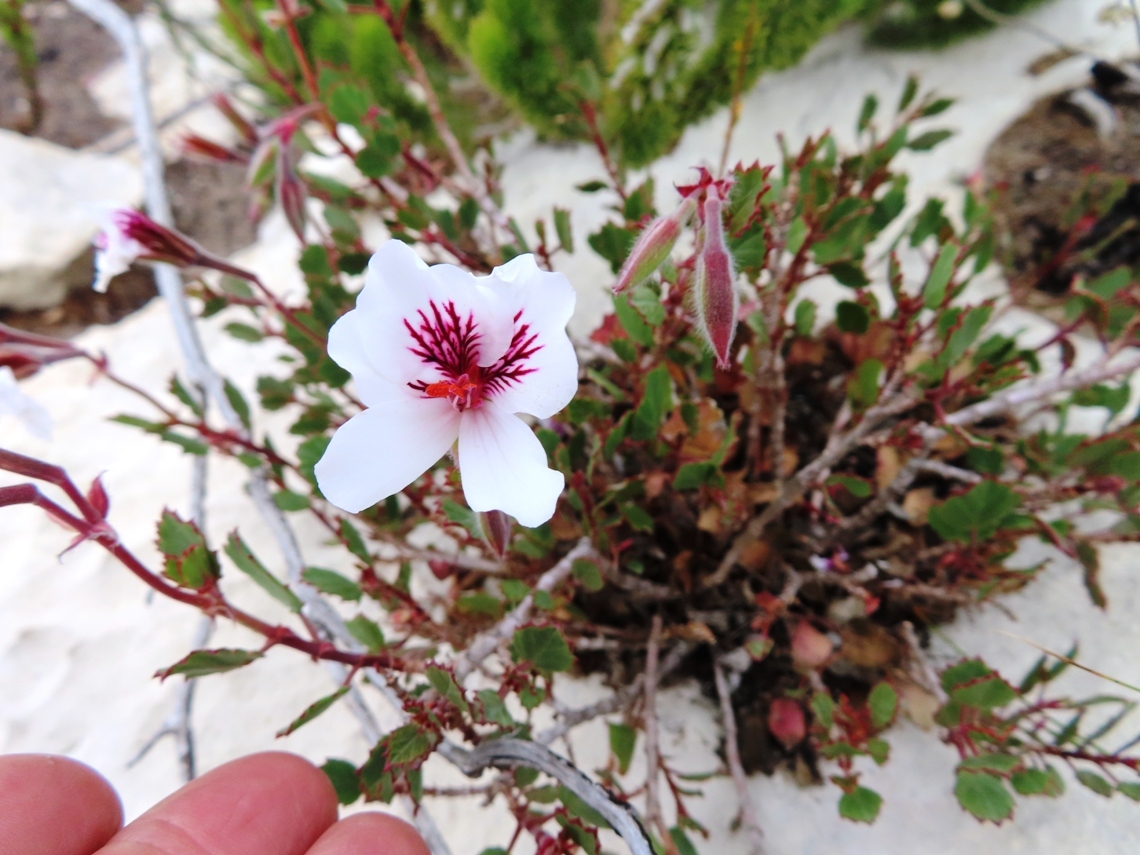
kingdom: Plantae
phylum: Tracheophyta
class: Magnoliopsida
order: Geraniales
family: Geraniaceae
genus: Pelargonium
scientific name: Pelargonium betulinum
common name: Birch-leaf pelargonium
